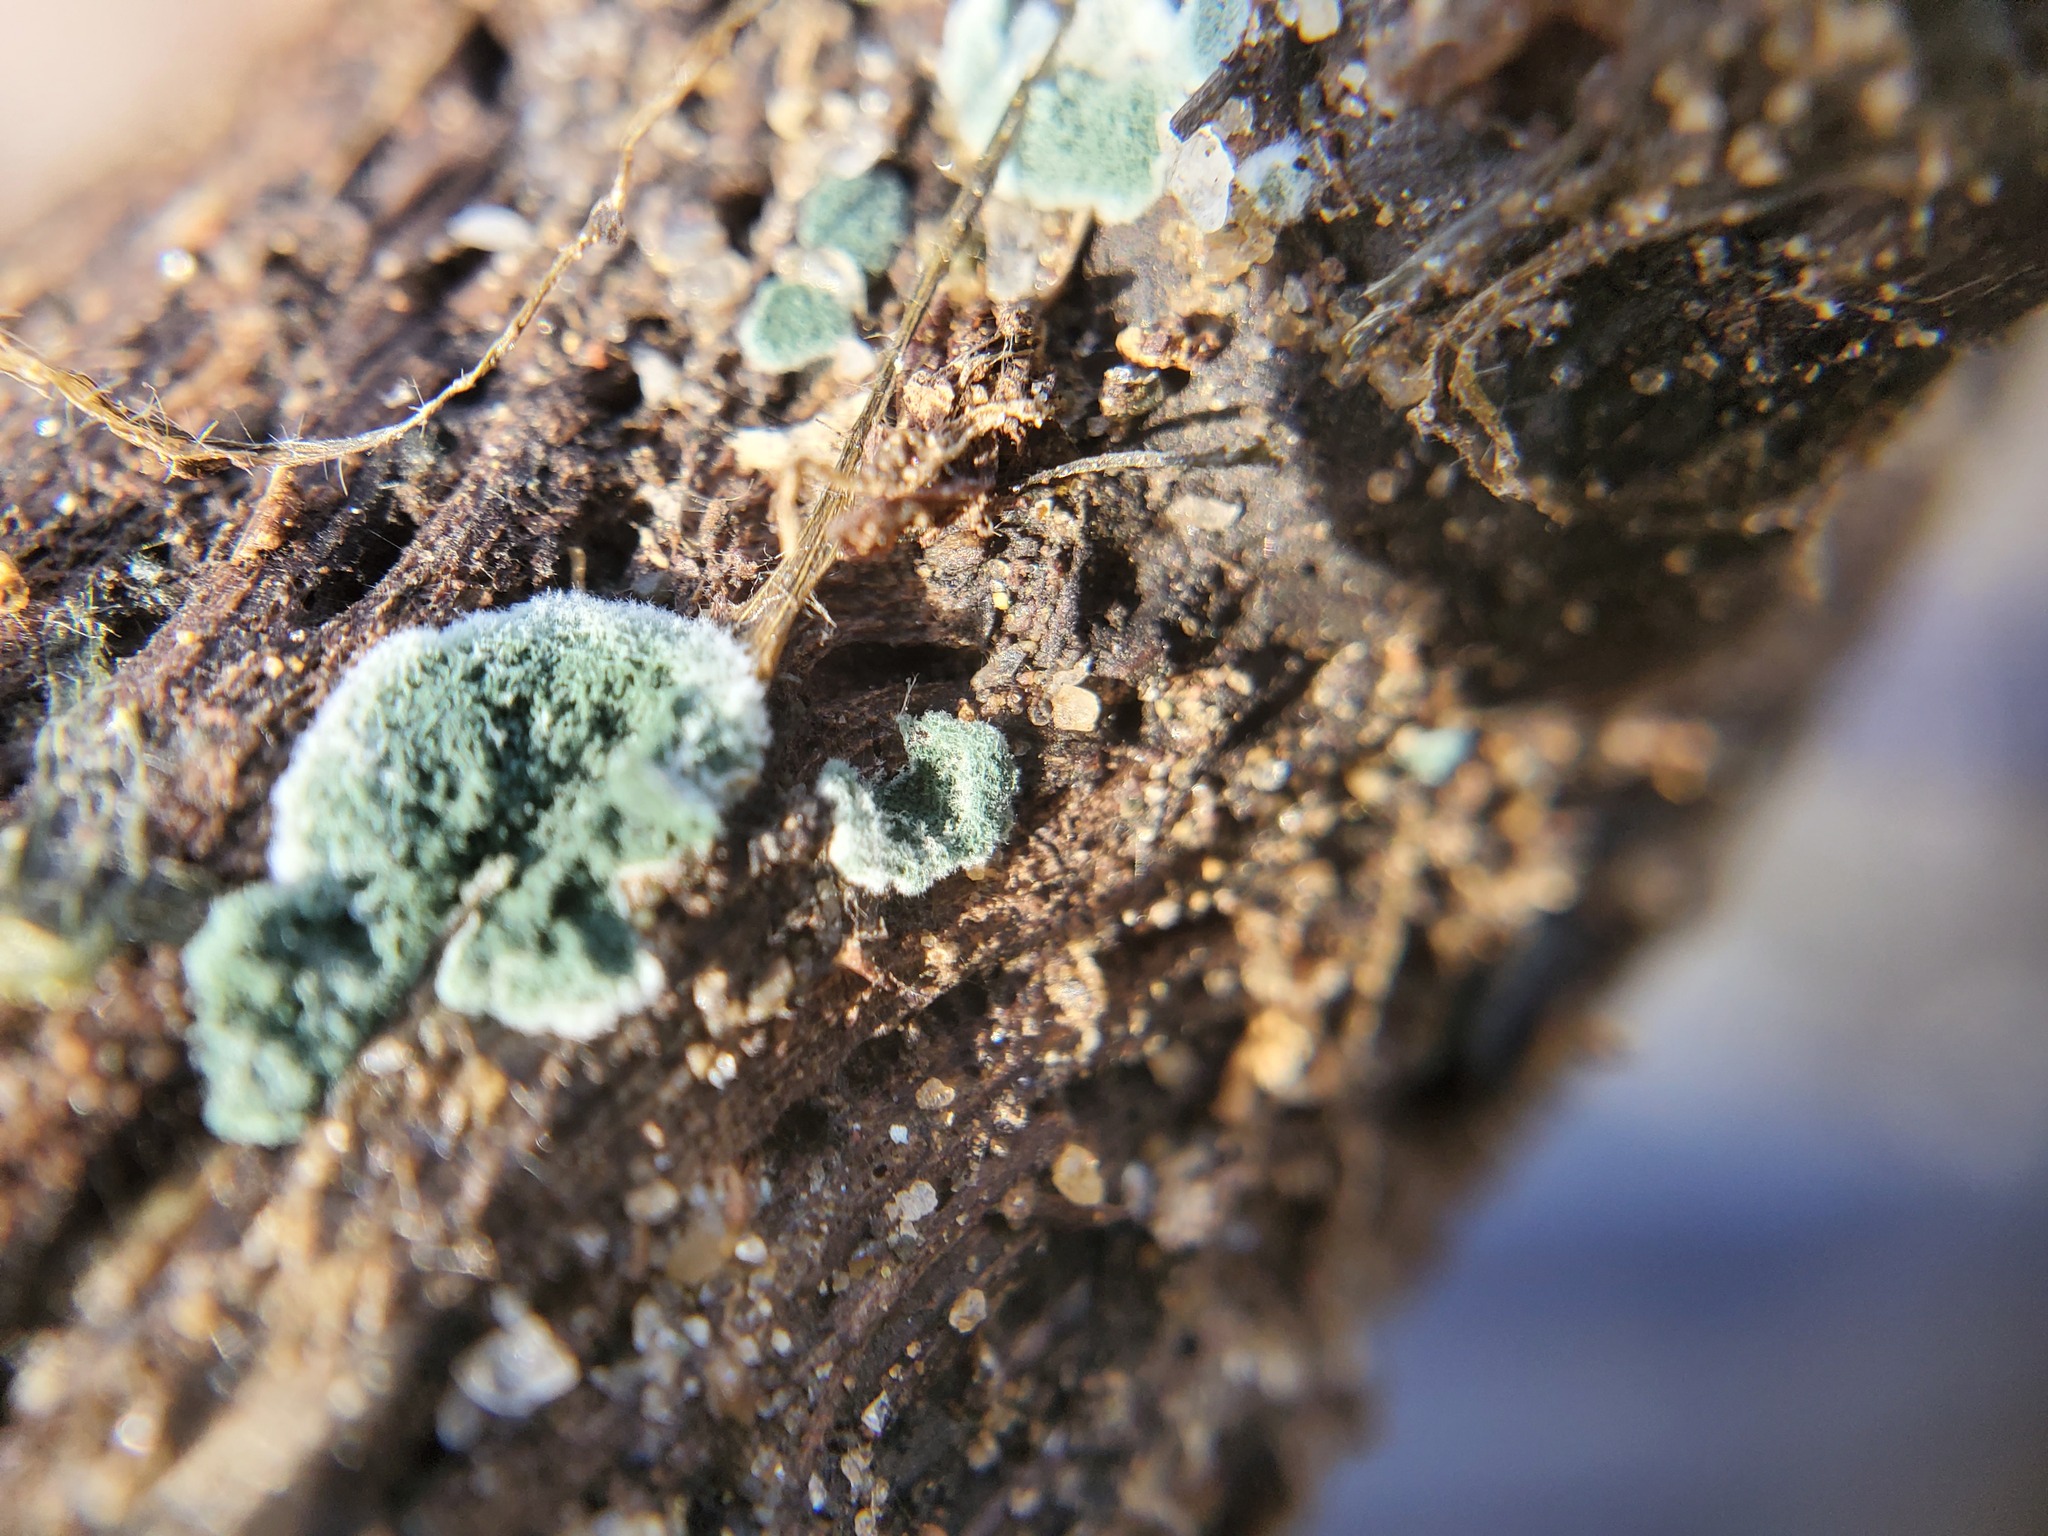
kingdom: Fungi
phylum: Ascomycota
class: Sordariomycetes
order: Hypocreales
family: Hypocreaceae
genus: Trichoderma
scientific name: Trichoderma viride
